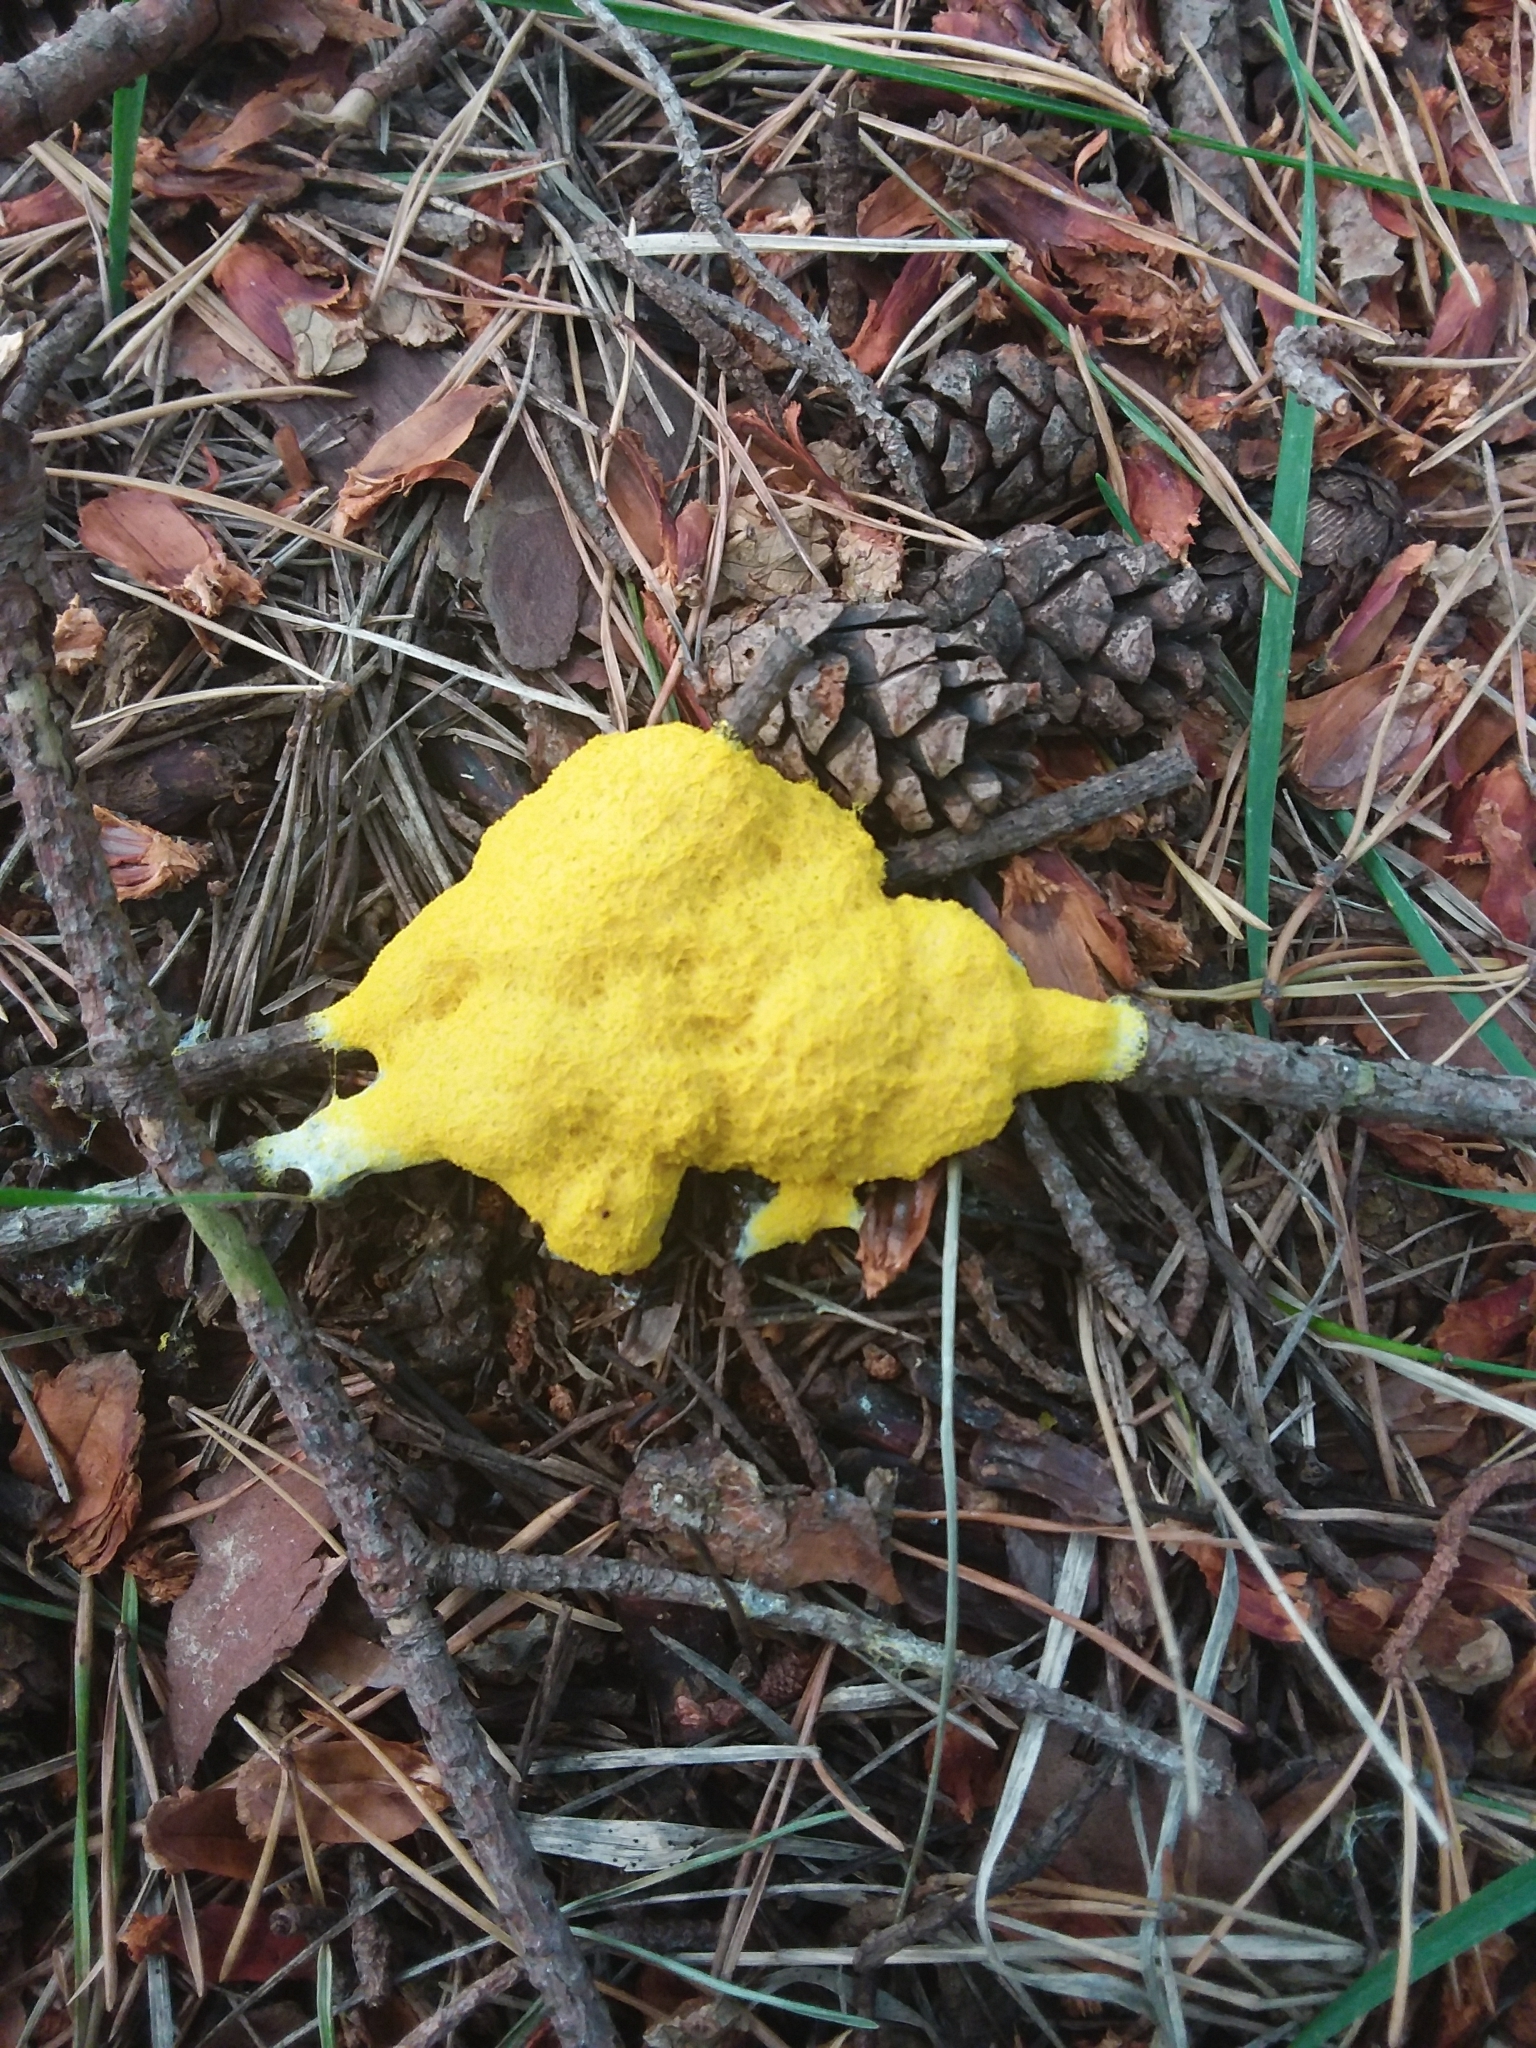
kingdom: Protozoa
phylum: Mycetozoa
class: Myxomycetes
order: Physarales
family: Physaraceae
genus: Fuligo
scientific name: Fuligo septica
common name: Dog vomit slime mold
